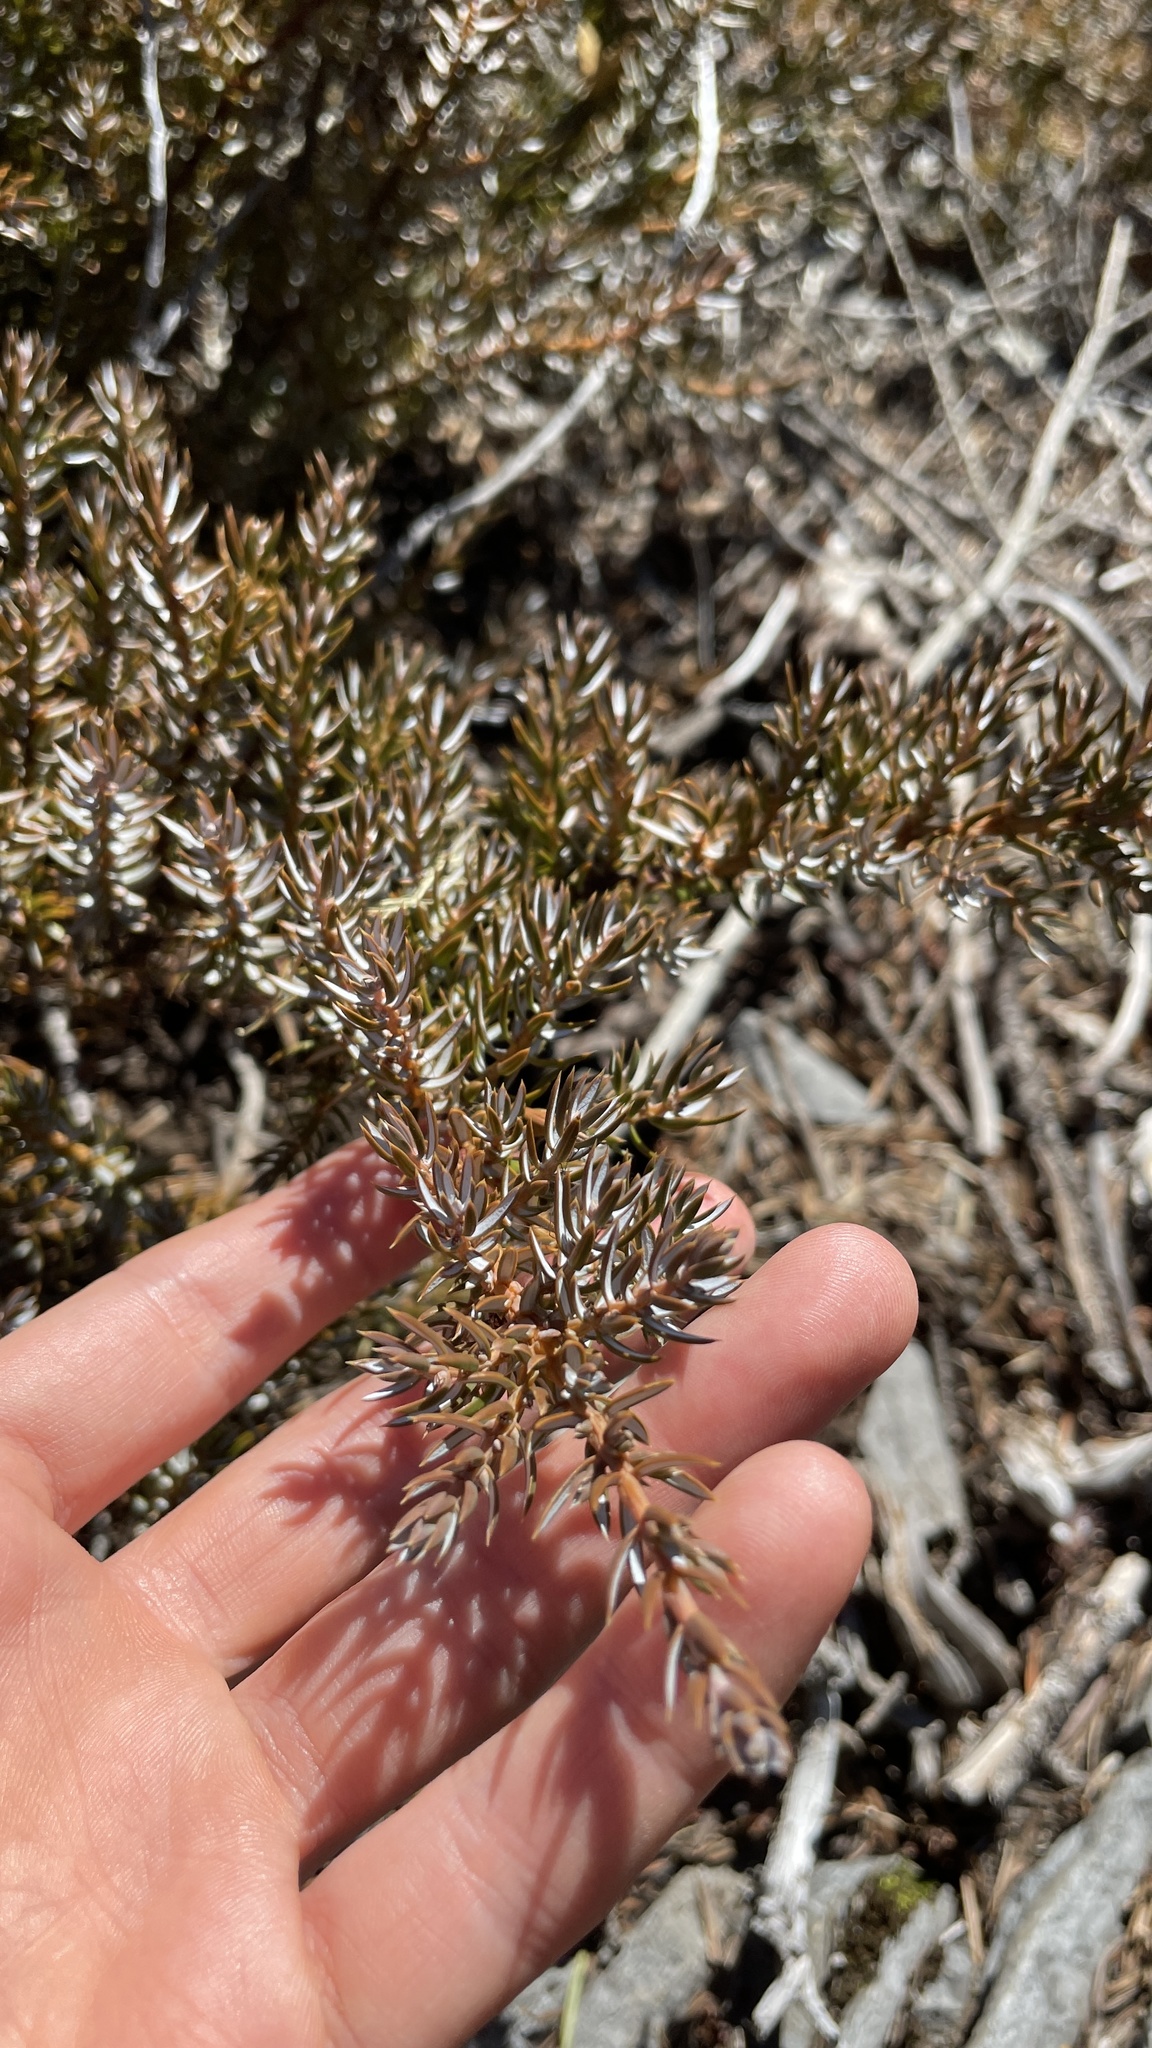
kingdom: Plantae
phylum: Tracheophyta
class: Pinopsida
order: Pinales
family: Cupressaceae
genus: Juniperus
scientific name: Juniperus communis
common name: Common juniper
